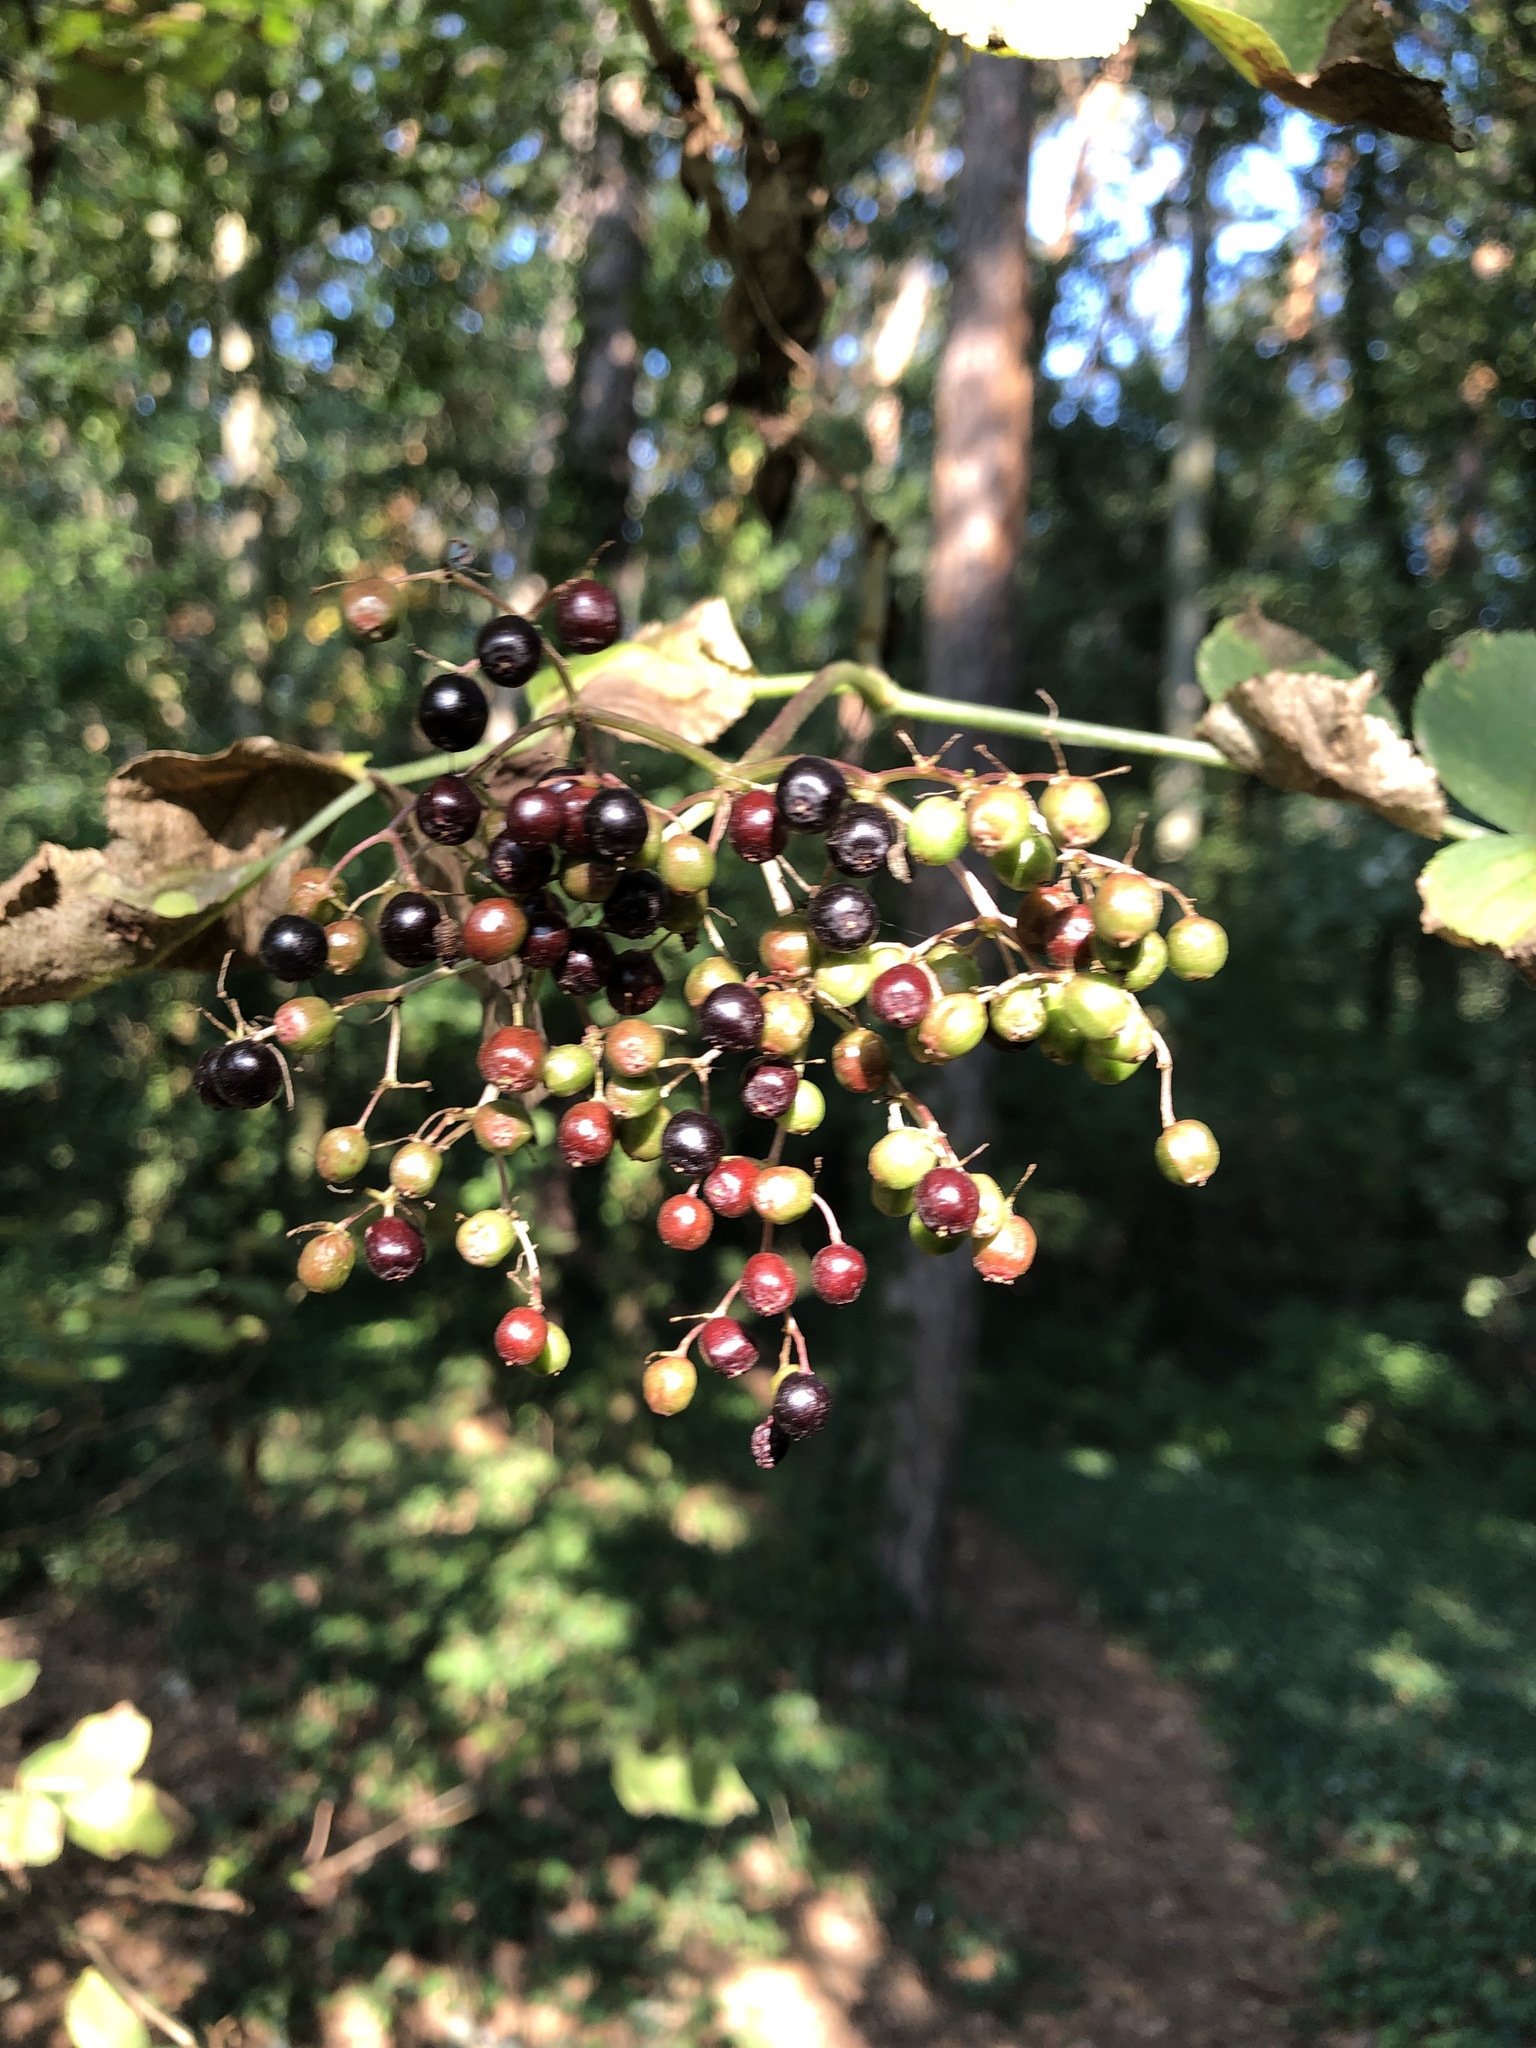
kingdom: Plantae
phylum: Tracheophyta
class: Magnoliopsida
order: Dipsacales
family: Viburnaceae
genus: Sambucus
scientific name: Sambucus nigra
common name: Elder
